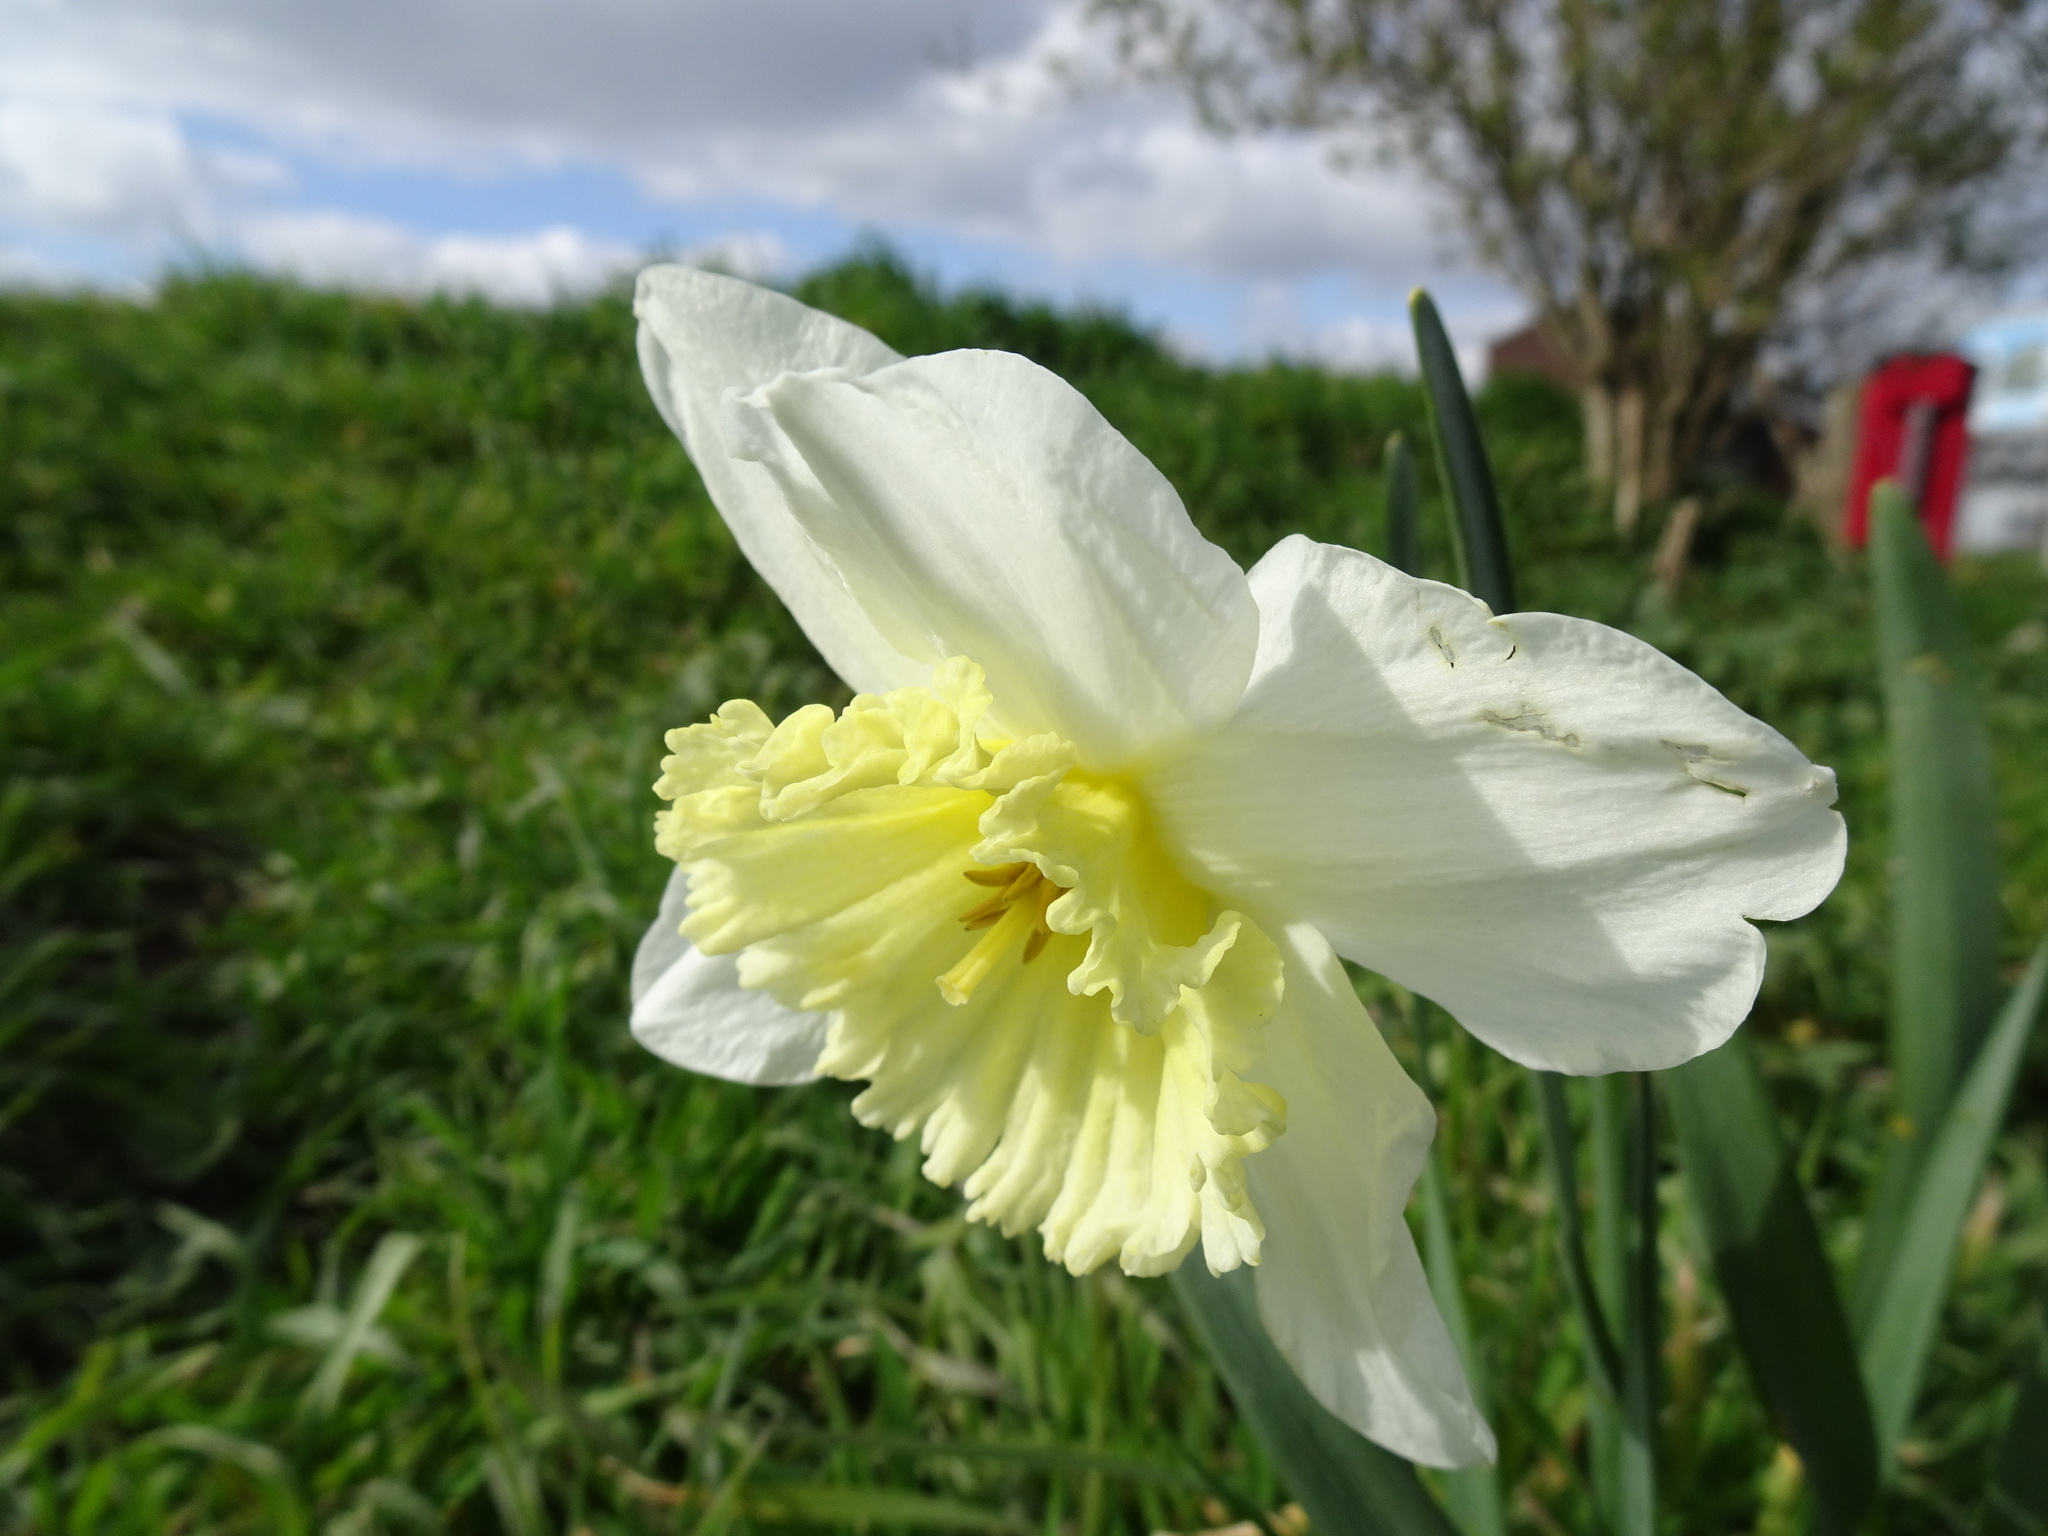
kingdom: Plantae
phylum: Tracheophyta
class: Liliopsida
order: Asparagales
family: Amaryllidaceae
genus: Narcissus
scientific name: Narcissus
